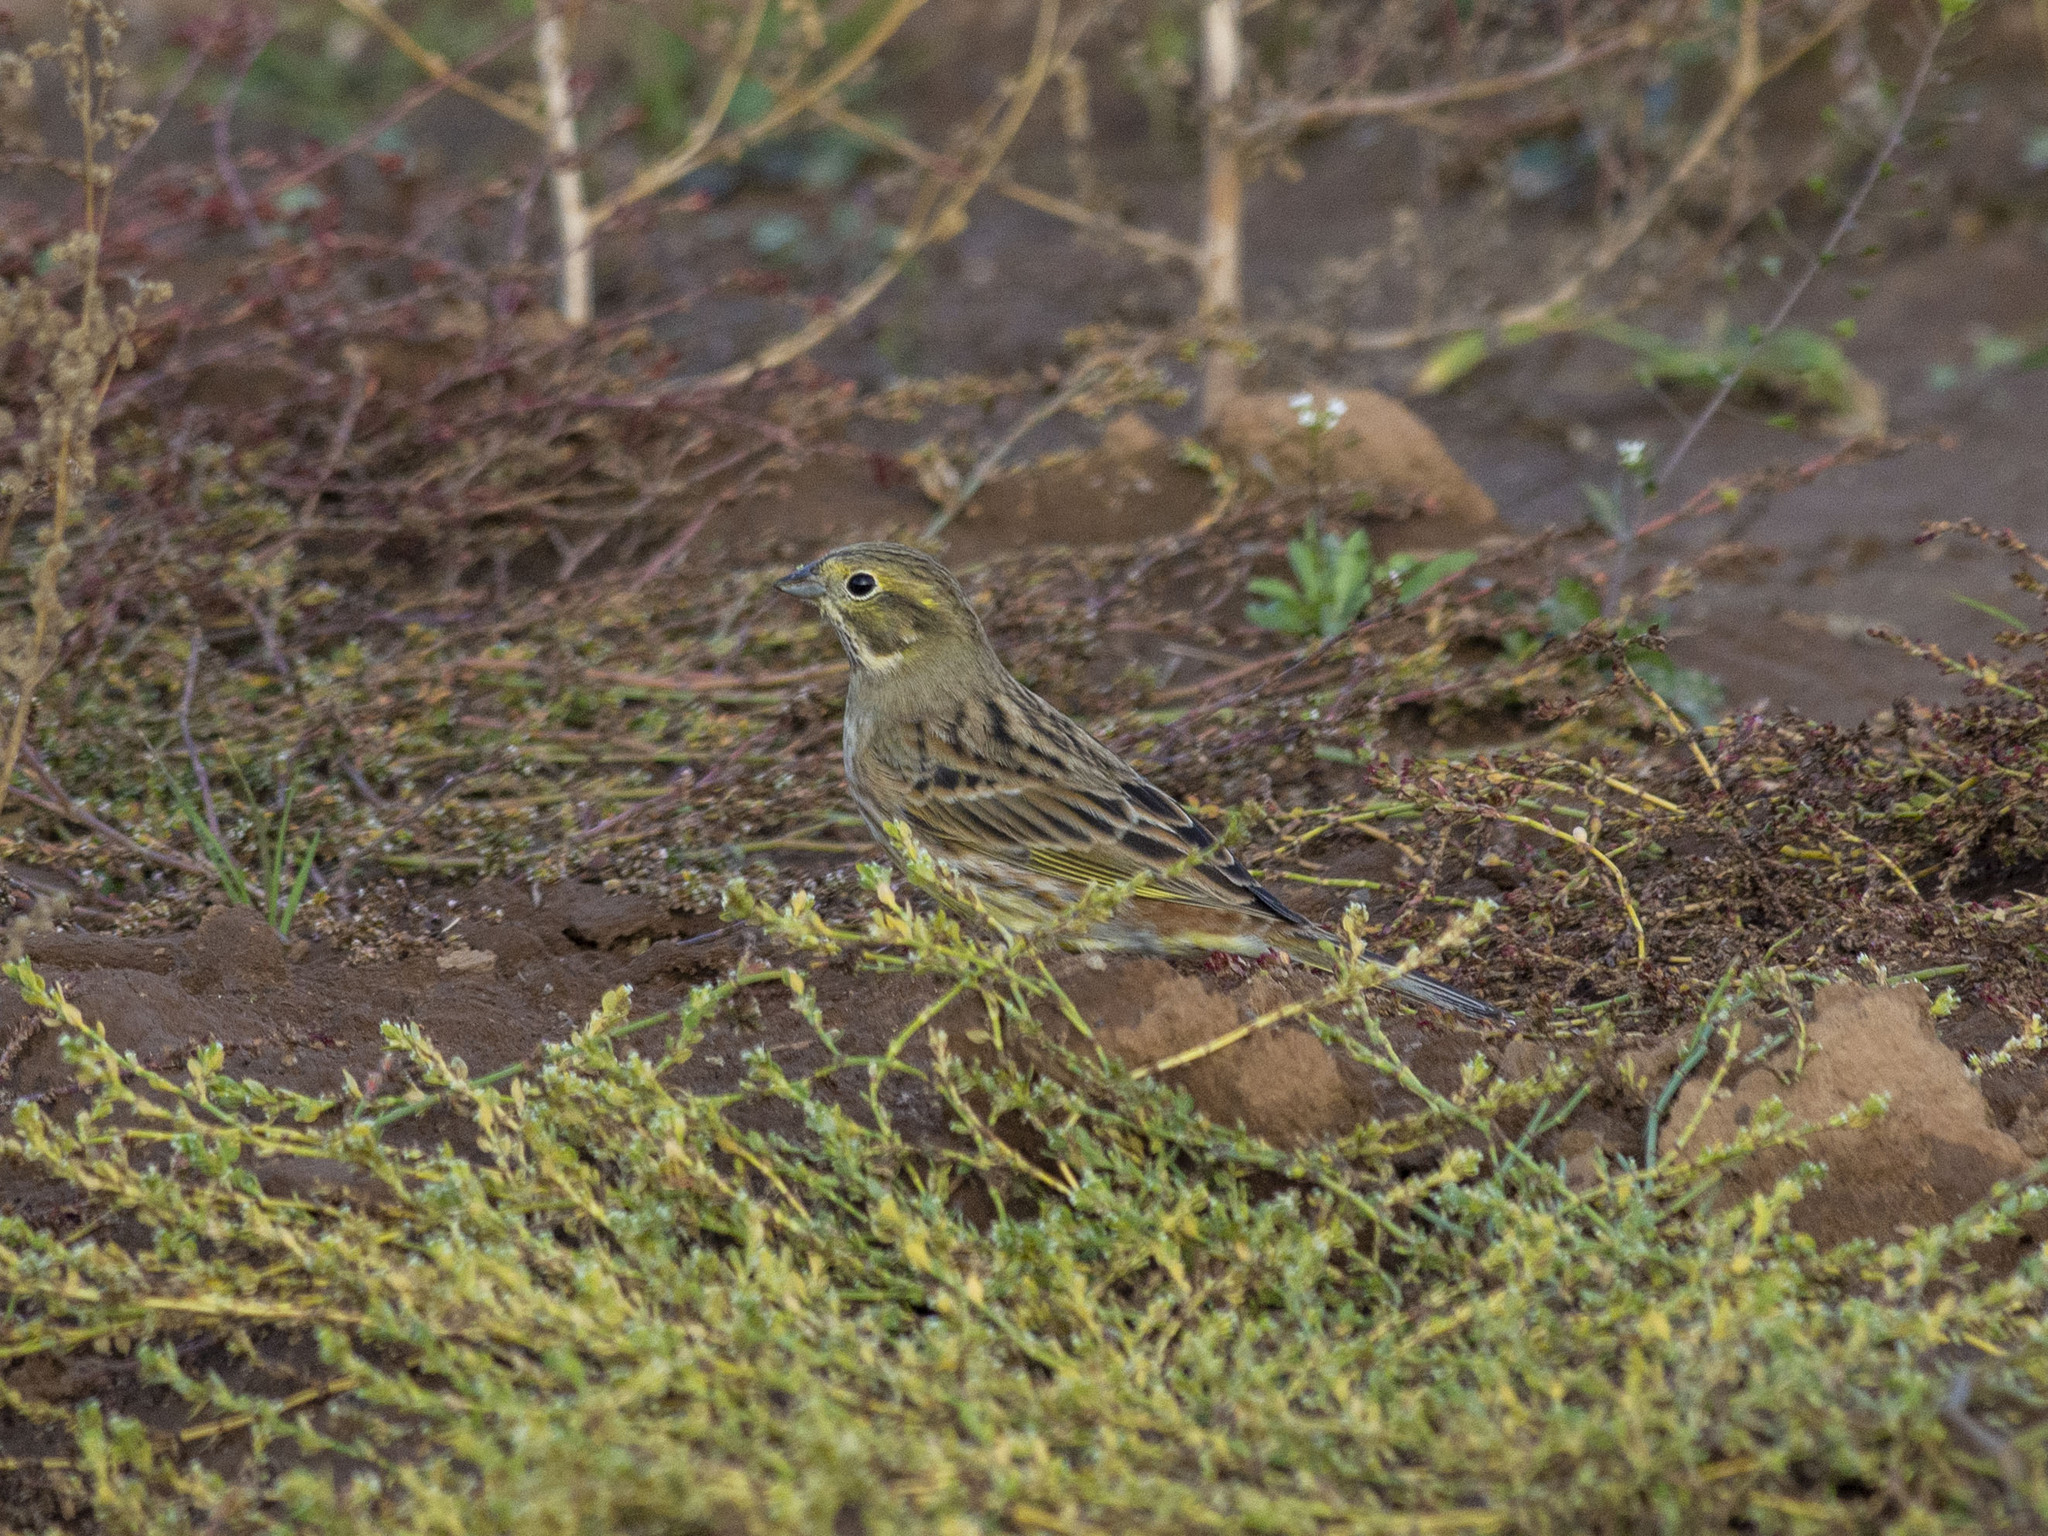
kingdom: Animalia
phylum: Chordata
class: Aves
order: Passeriformes
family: Emberizidae
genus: Emberiza
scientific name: Emberiza citrinella
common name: Yellowhammer
